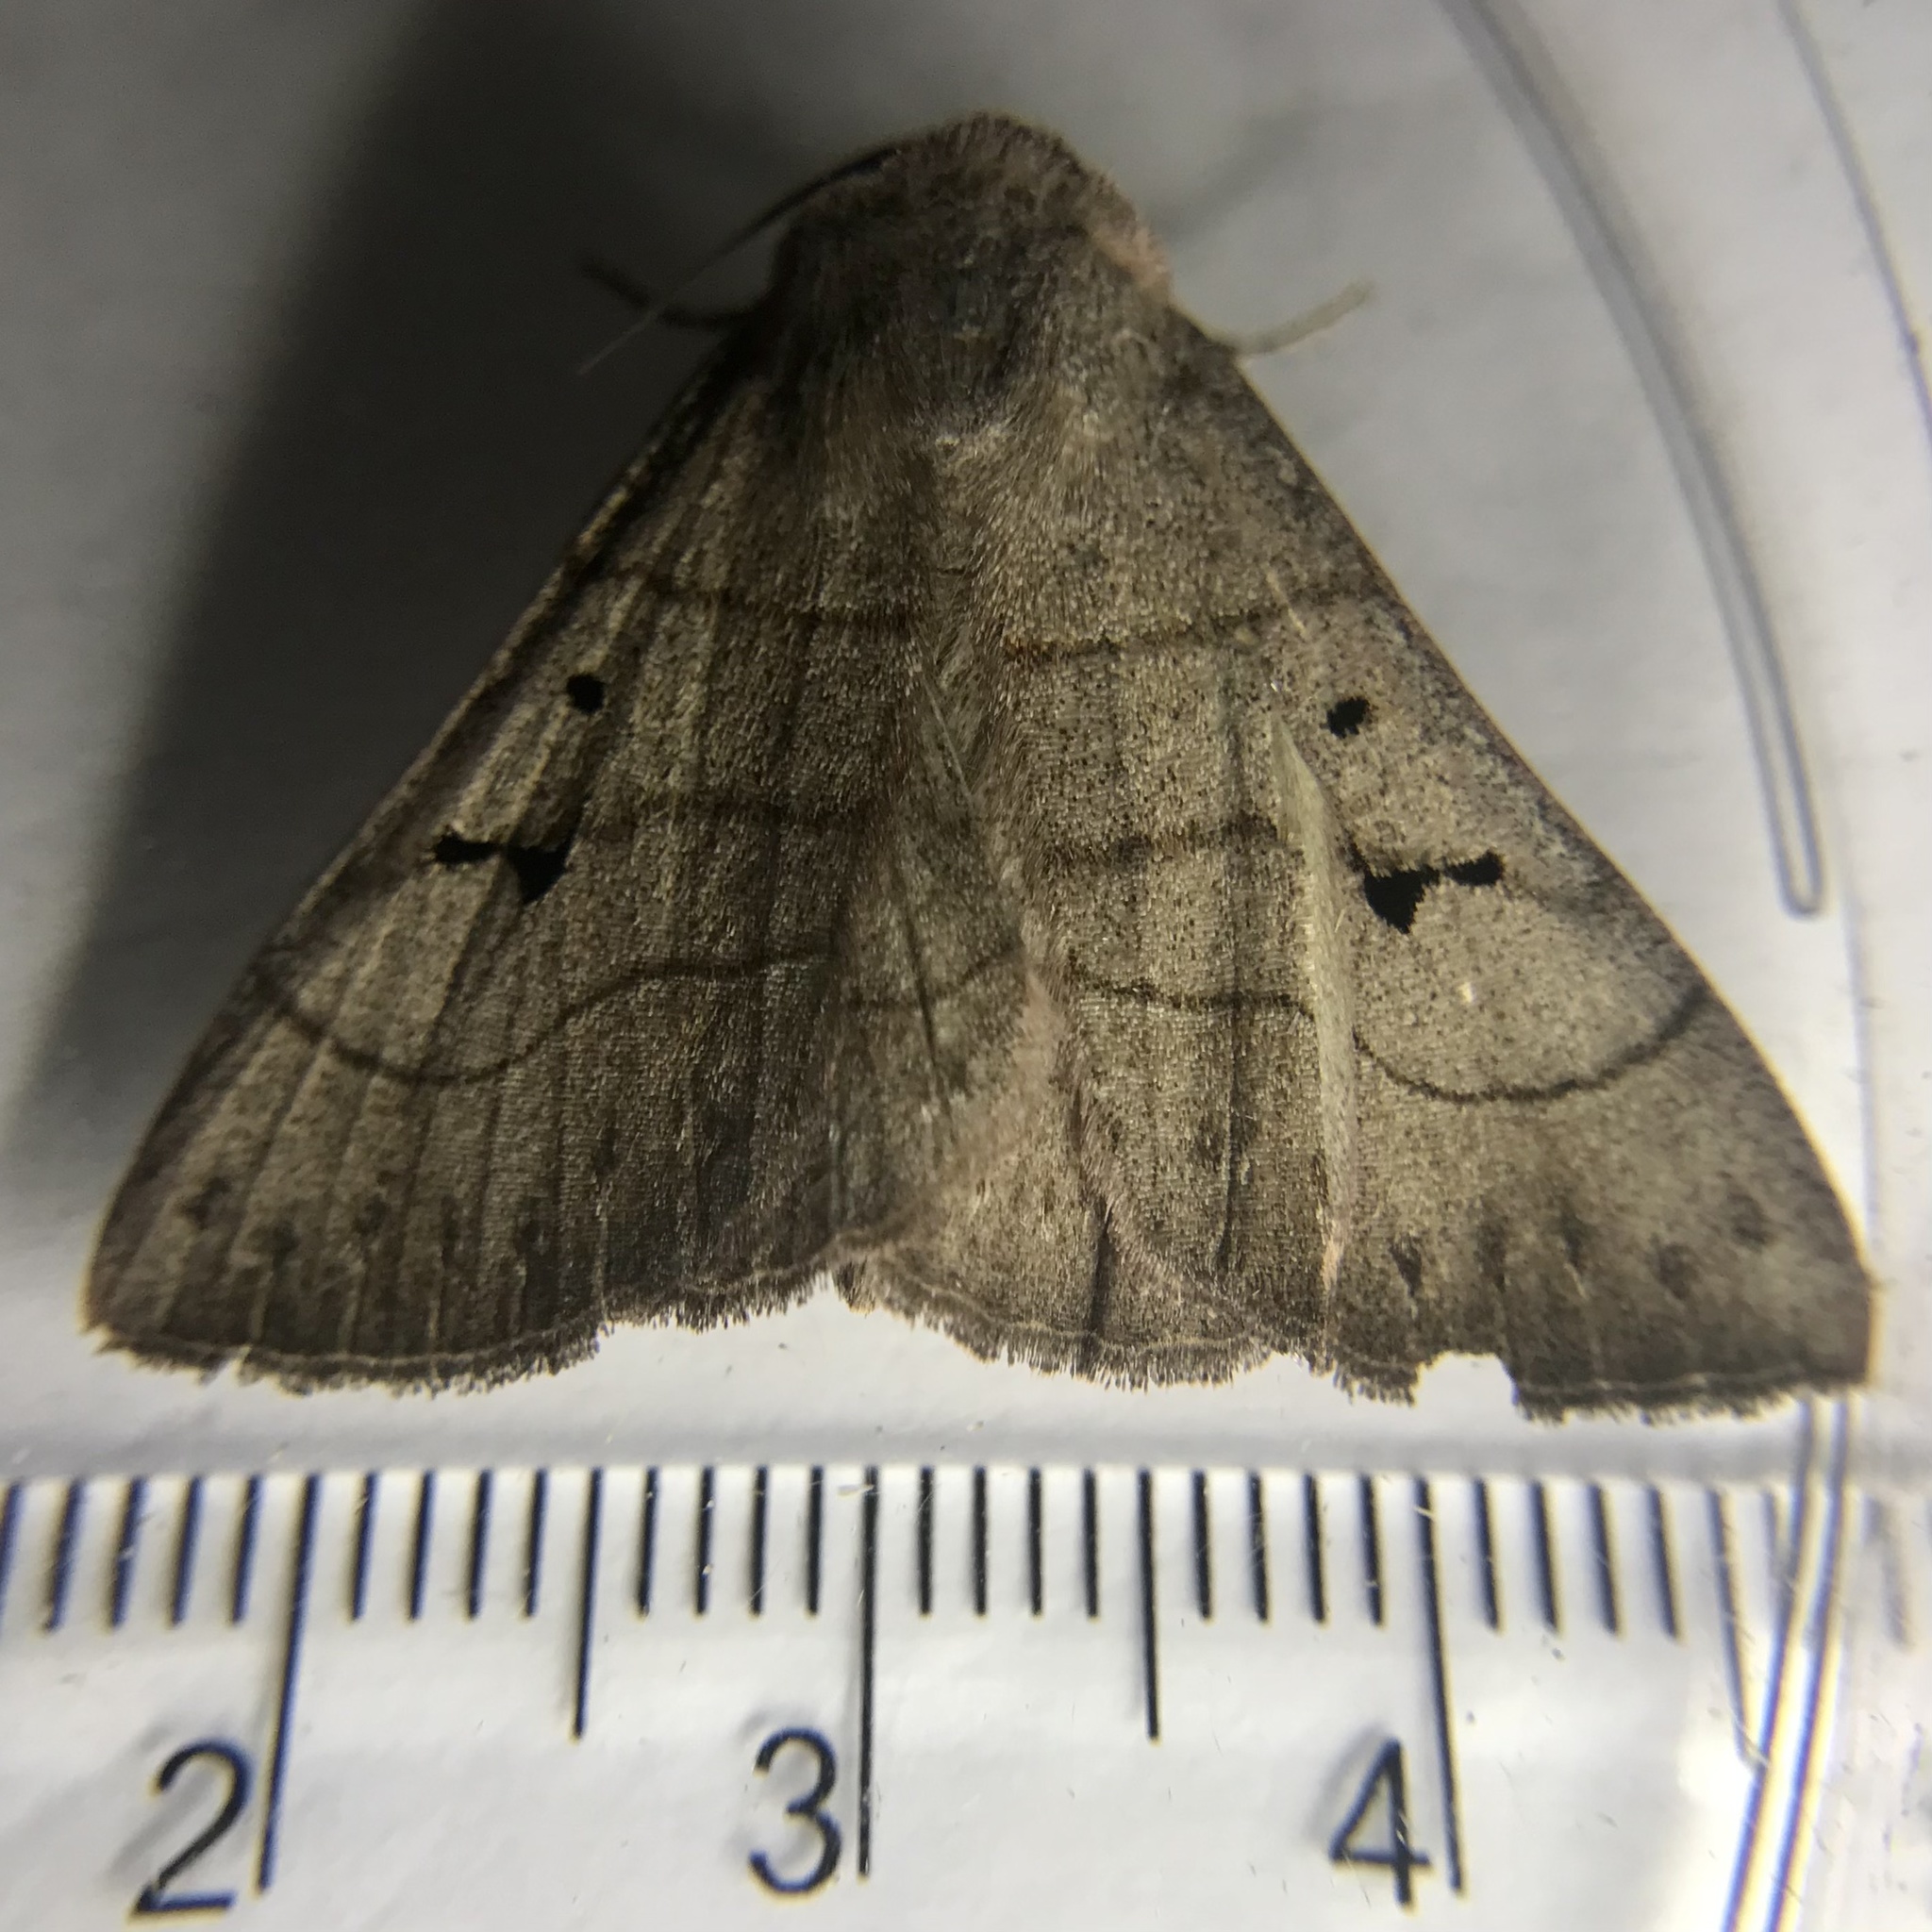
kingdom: Animalia
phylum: Arthropoda
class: Insecta
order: Lepidoptera
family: Erebidae
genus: Panopoda
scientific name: Panopoda carneicosta
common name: Brown panopoda moth
